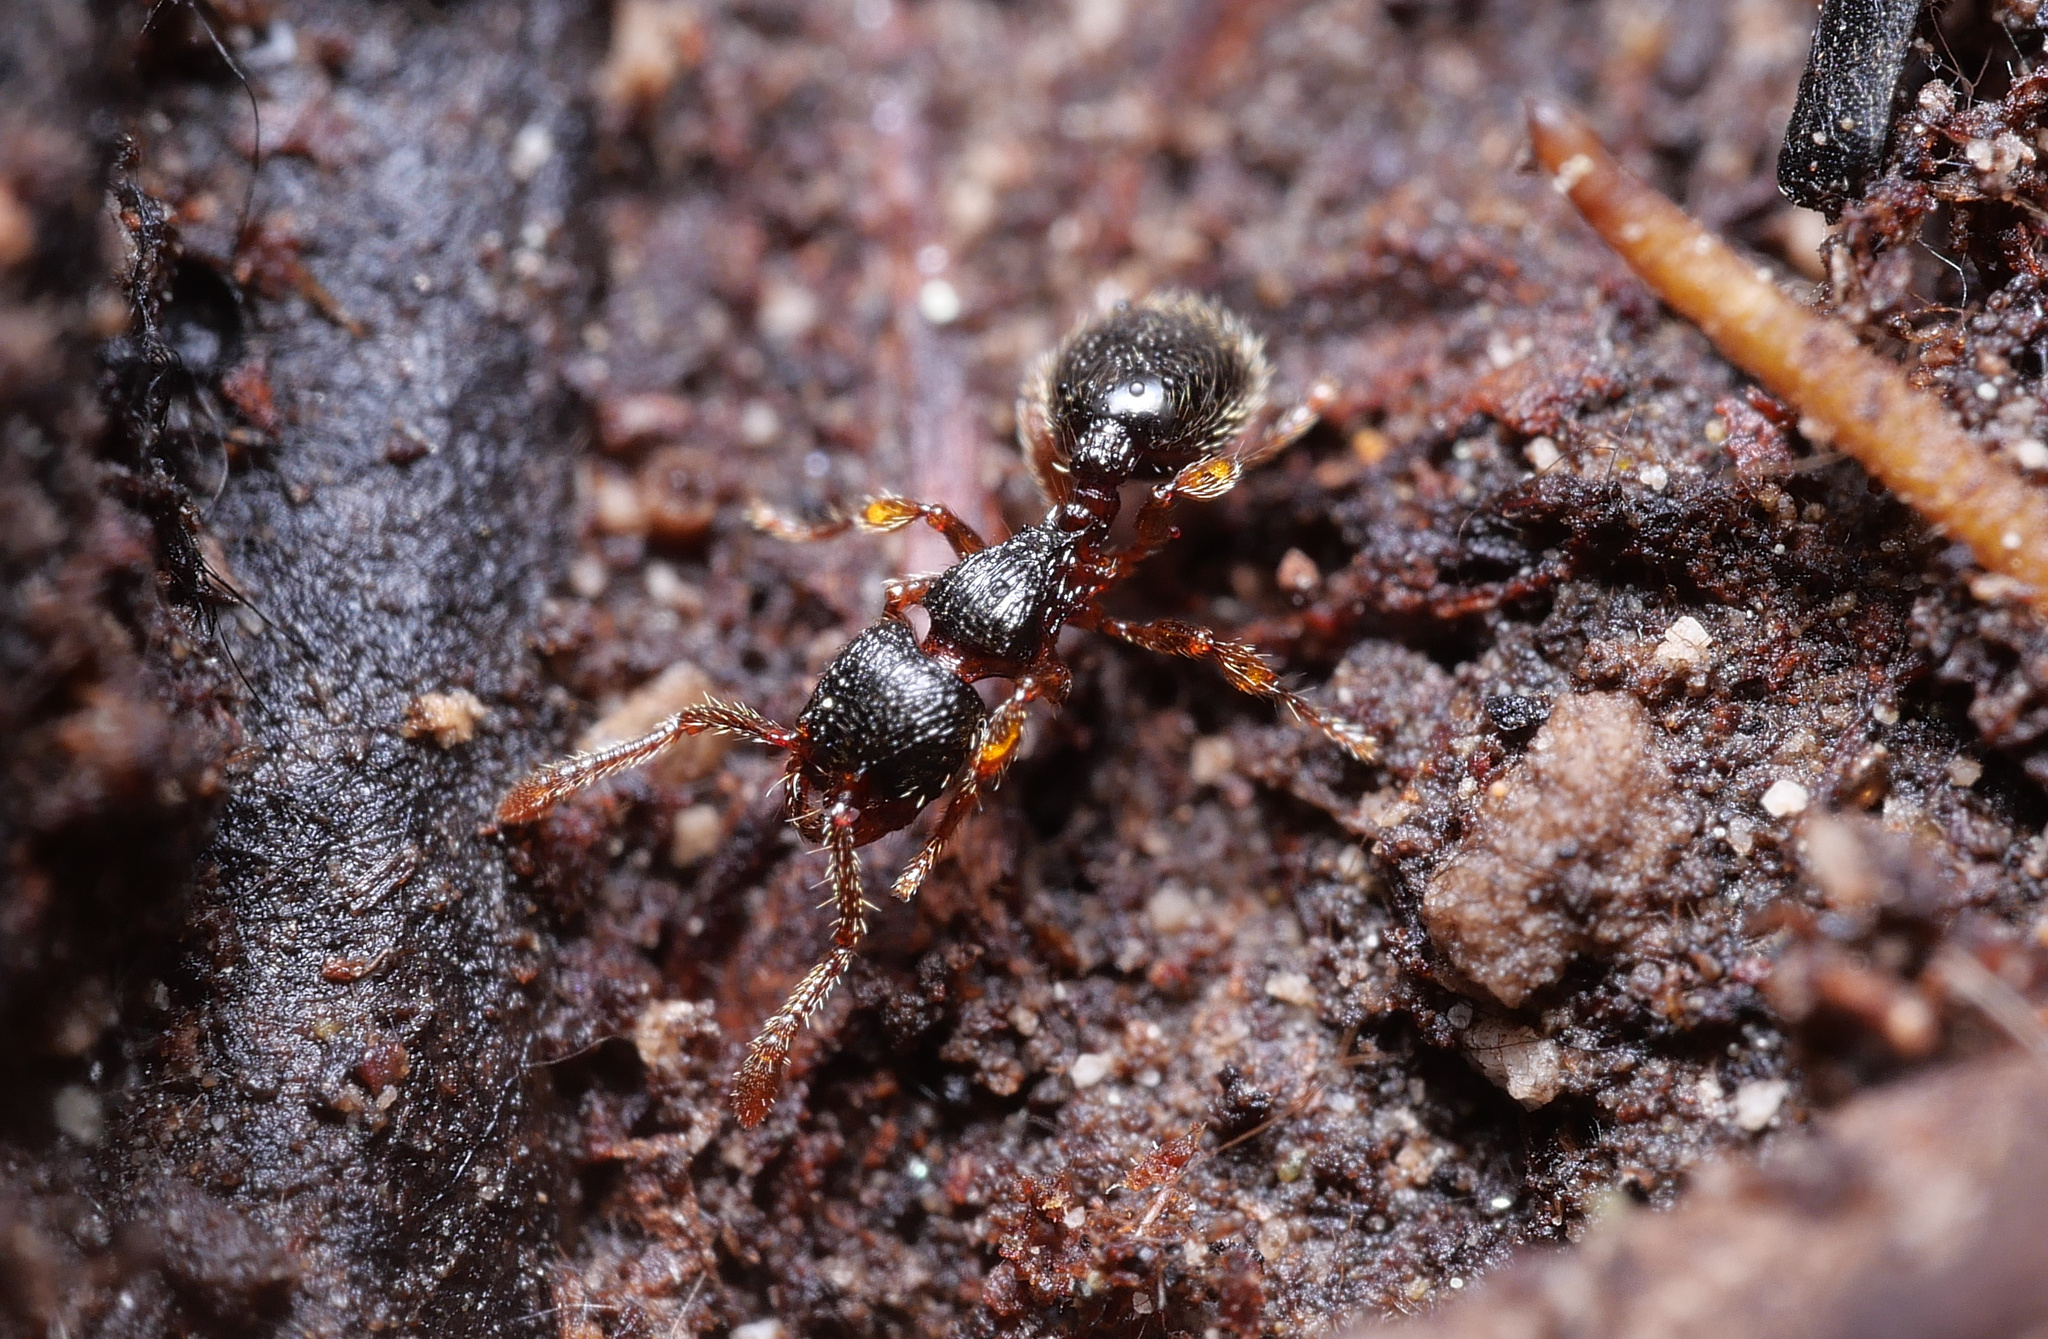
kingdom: Animalia
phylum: Arthropoda
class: Insecta
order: Hymenoptera
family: Formicidae
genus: Myrmecina
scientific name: Myrmecina graminicola
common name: Grass ant
